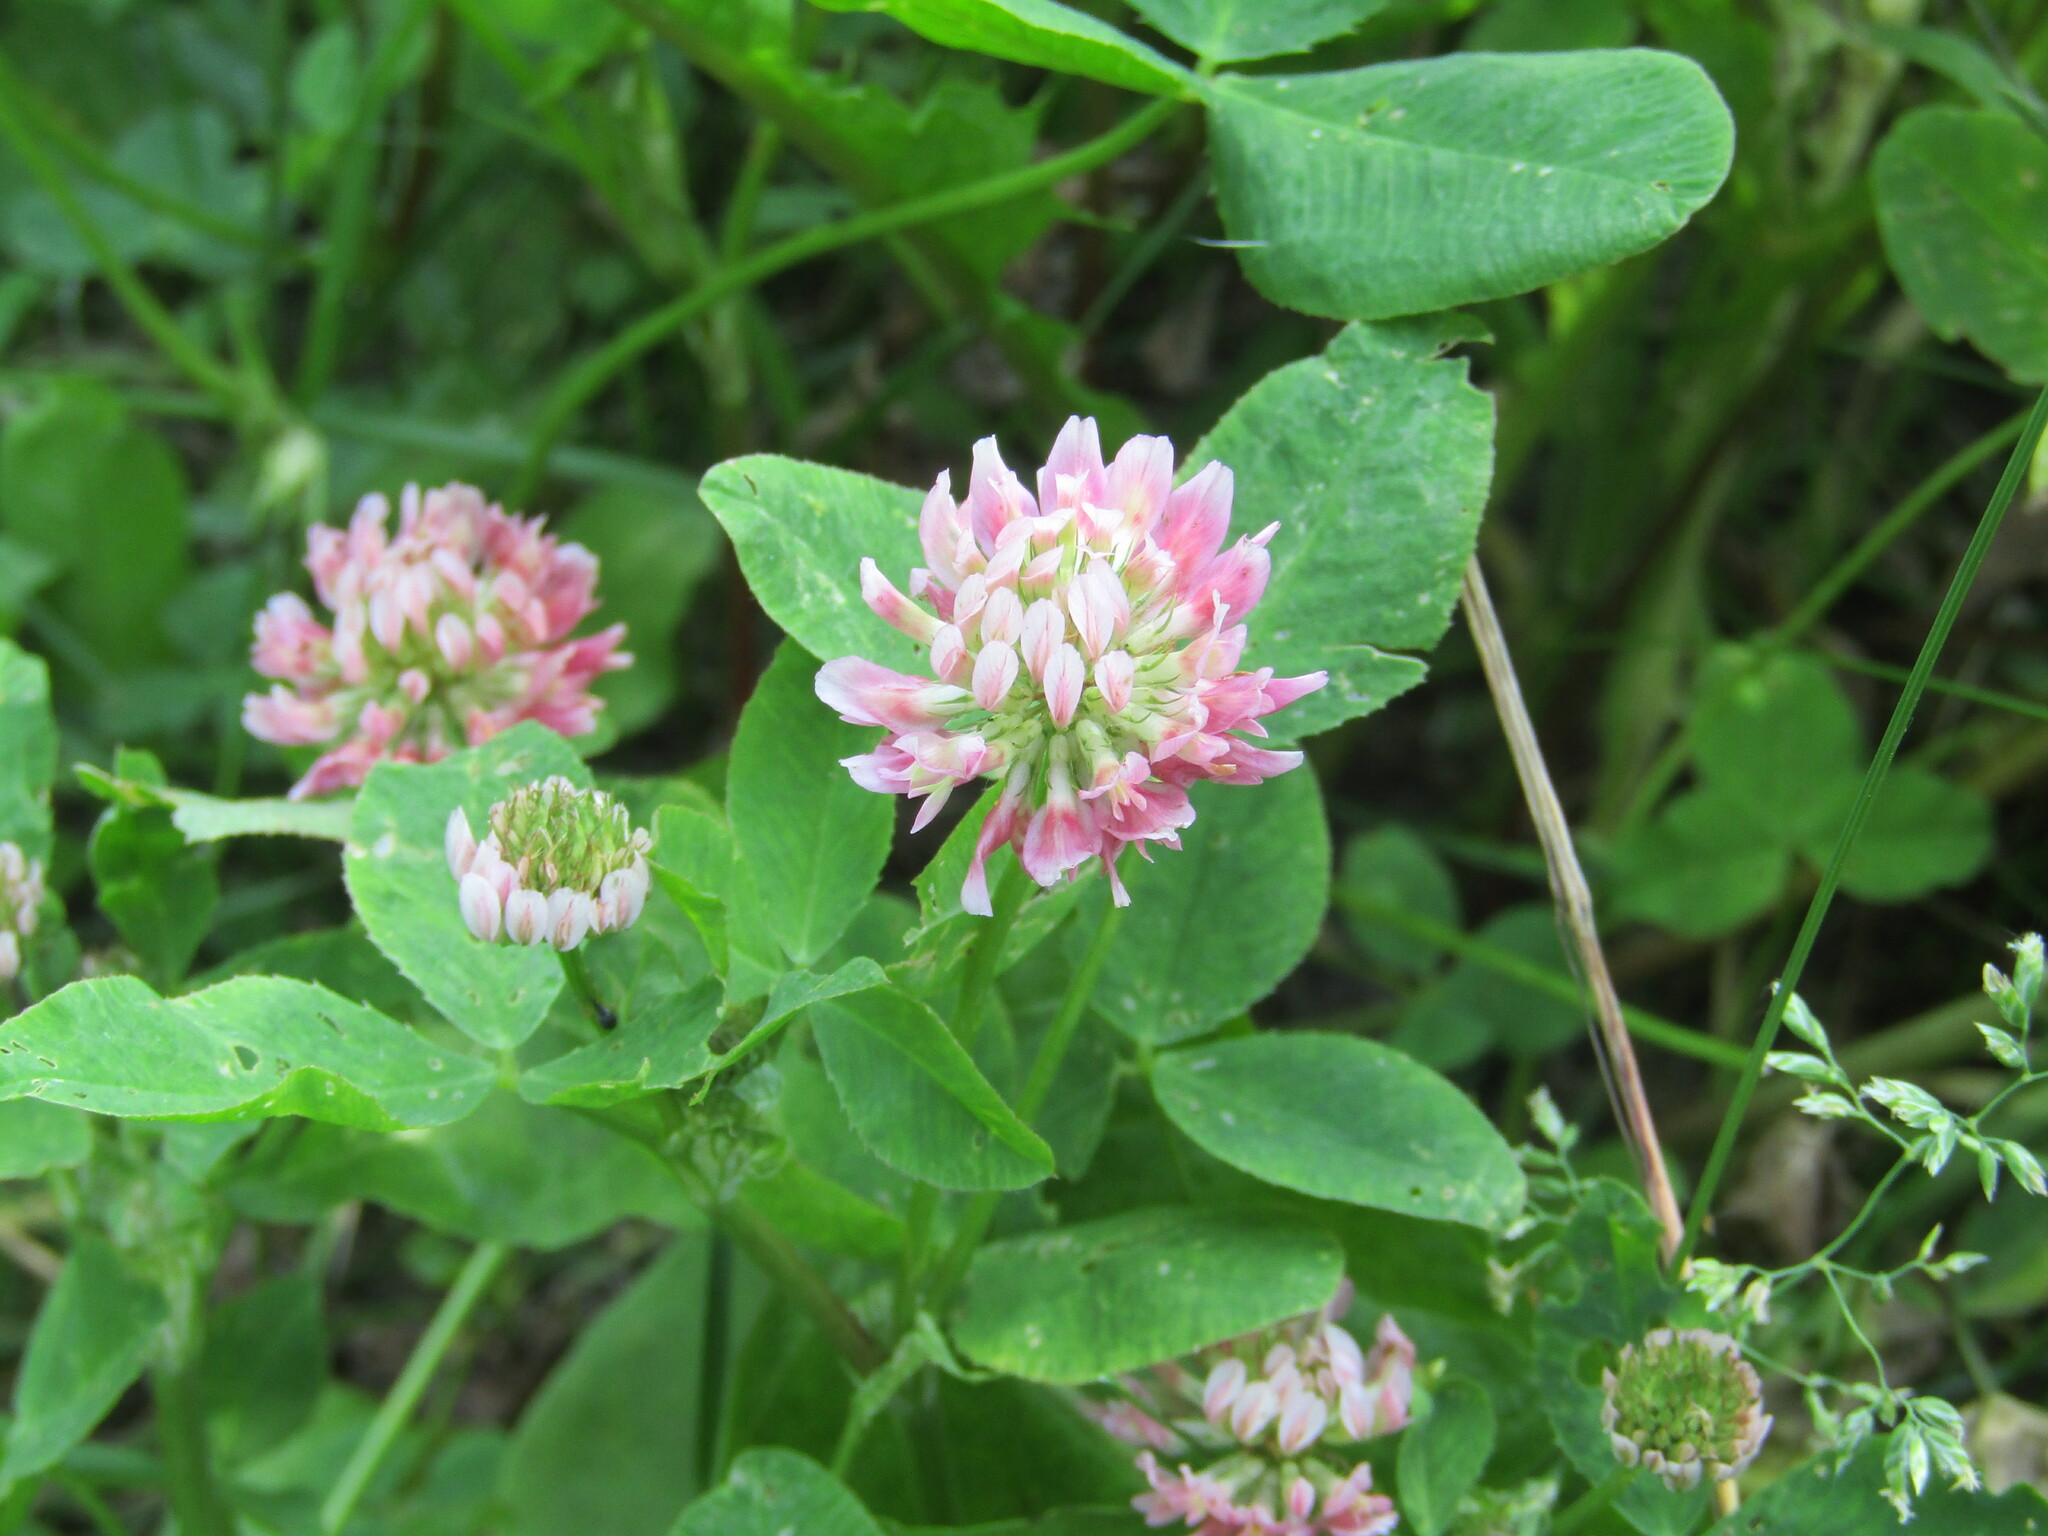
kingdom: Plantae
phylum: Tracheophyta
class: Magnoliopsida
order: Fabales
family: Fabaceae
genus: Trifolium
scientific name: Trifolium hybridum
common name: Alsike clover
